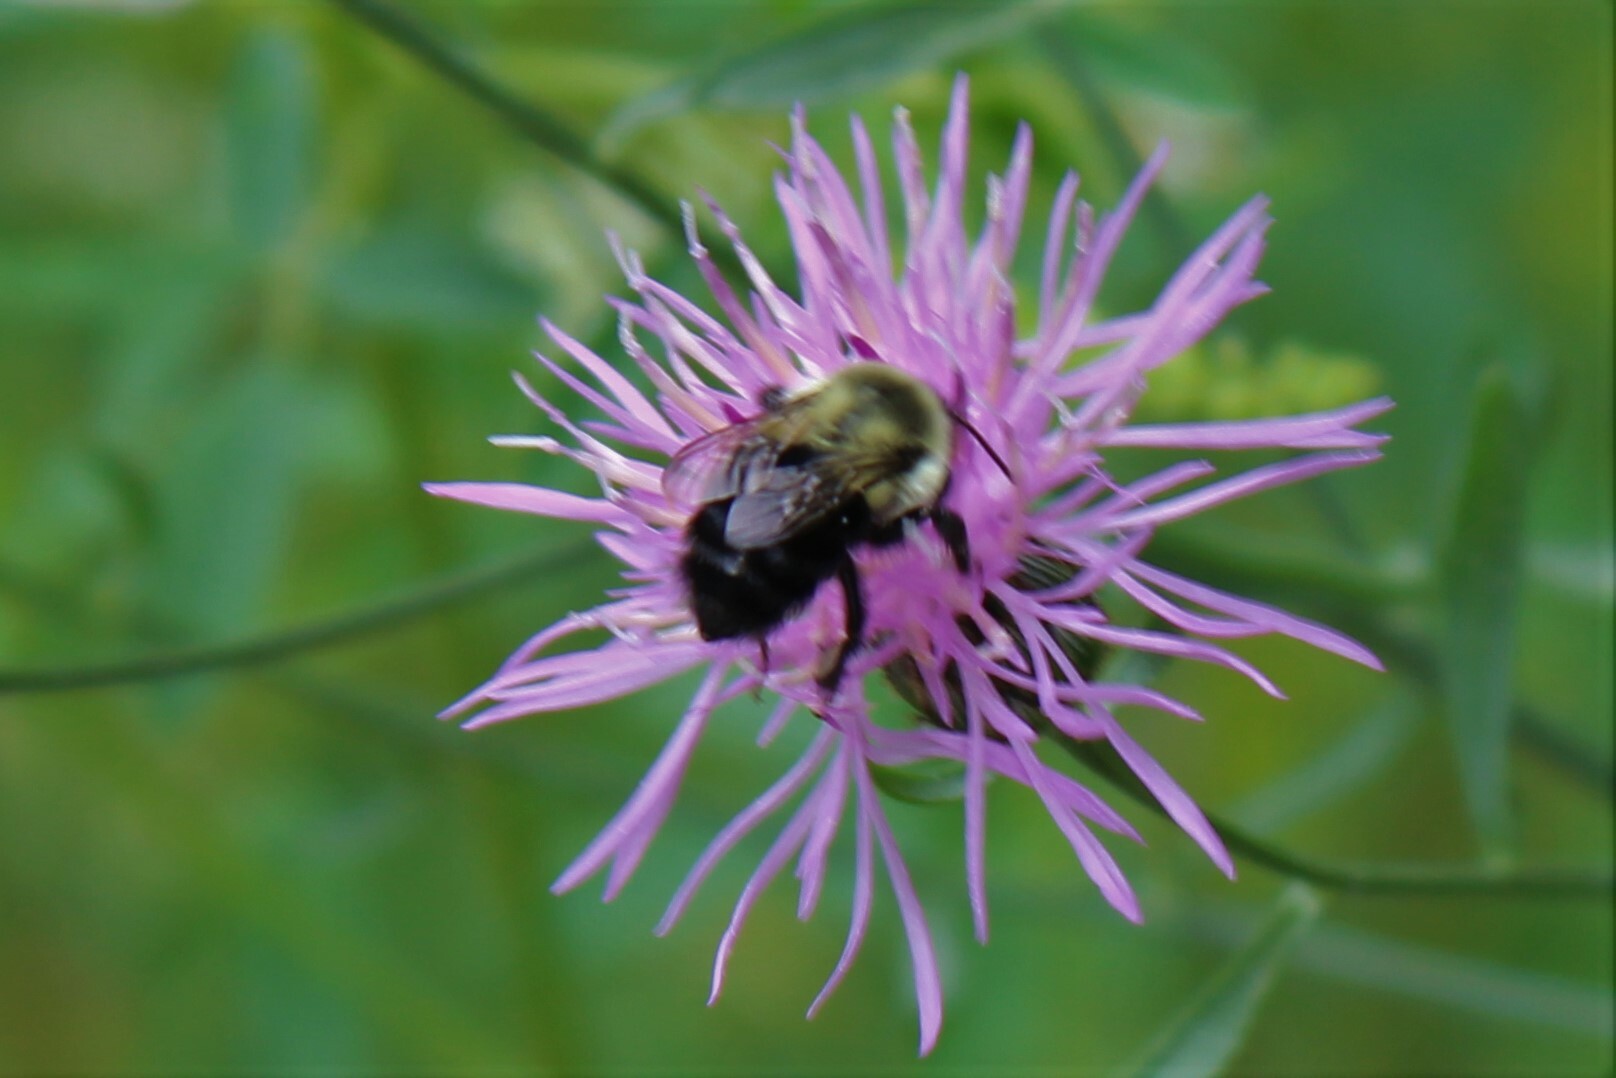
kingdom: Animalia
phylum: Arthropoda
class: Insecta
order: Hymenoptera
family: Apidae
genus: Bombus
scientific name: Bombus impatiens
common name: Common eastern bumble bee
